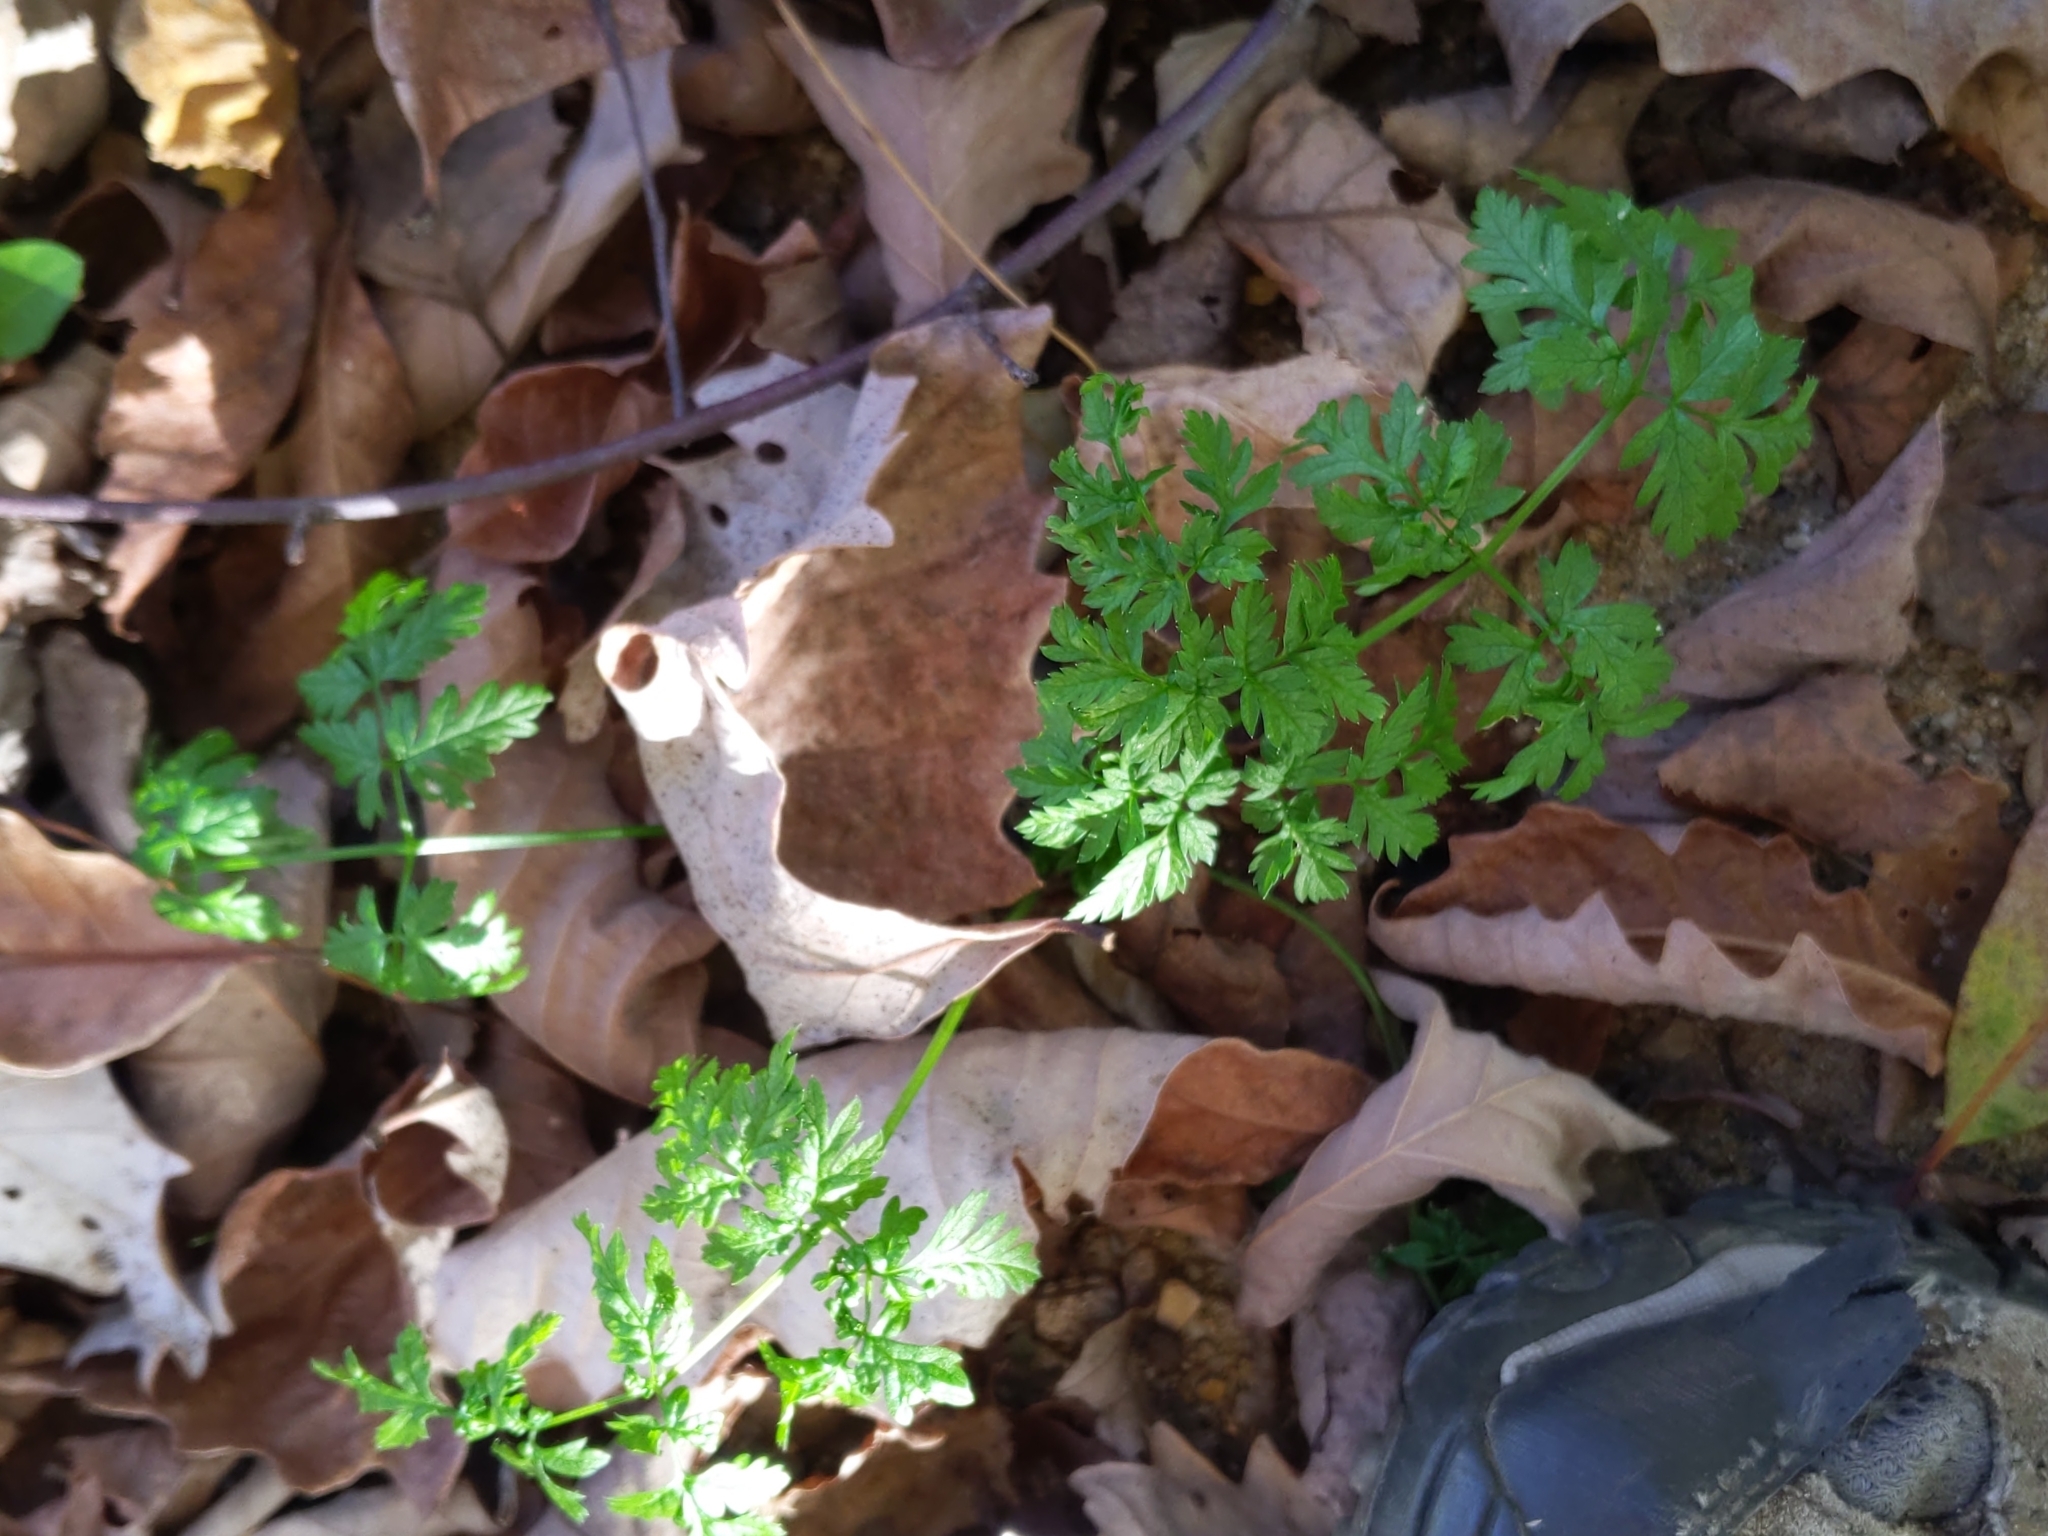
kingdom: Plantae
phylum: Tracheophyta
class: Magnoliopsida
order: Apiales
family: Apiaceae
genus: Conium
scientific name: Conium maculatum
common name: Hemlock
